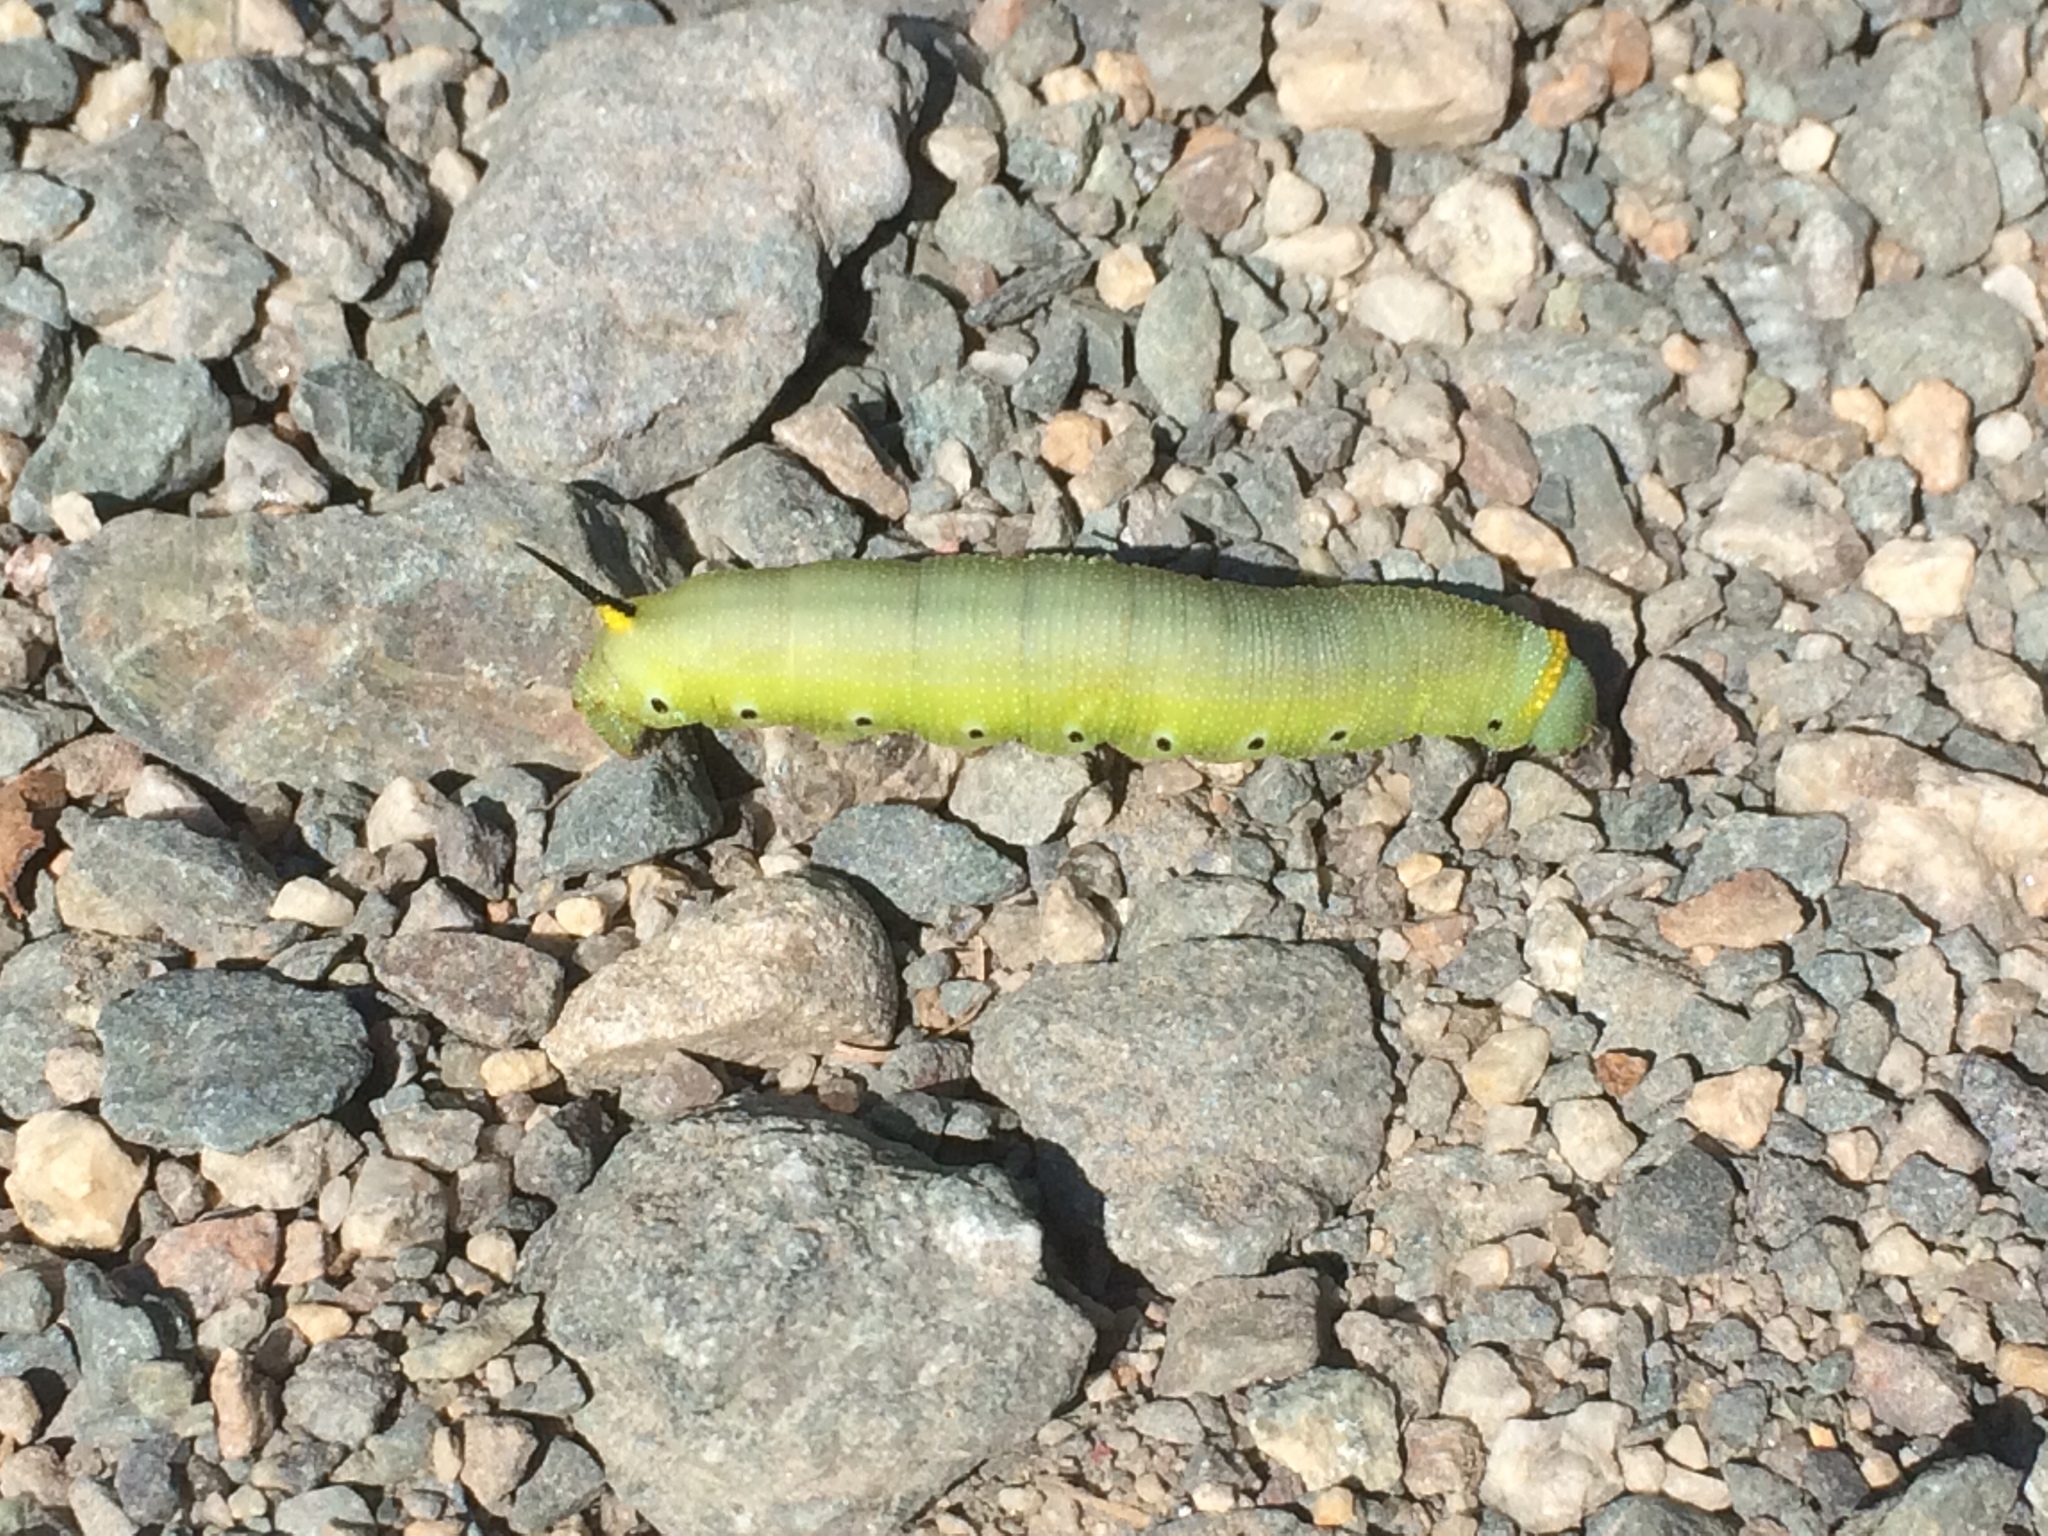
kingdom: Animalia
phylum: Arthropoda
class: Insecta
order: Lepidoptera
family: Sphingidae
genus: Hemaris
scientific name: Hemaris diffinis
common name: Bumblebee moth
